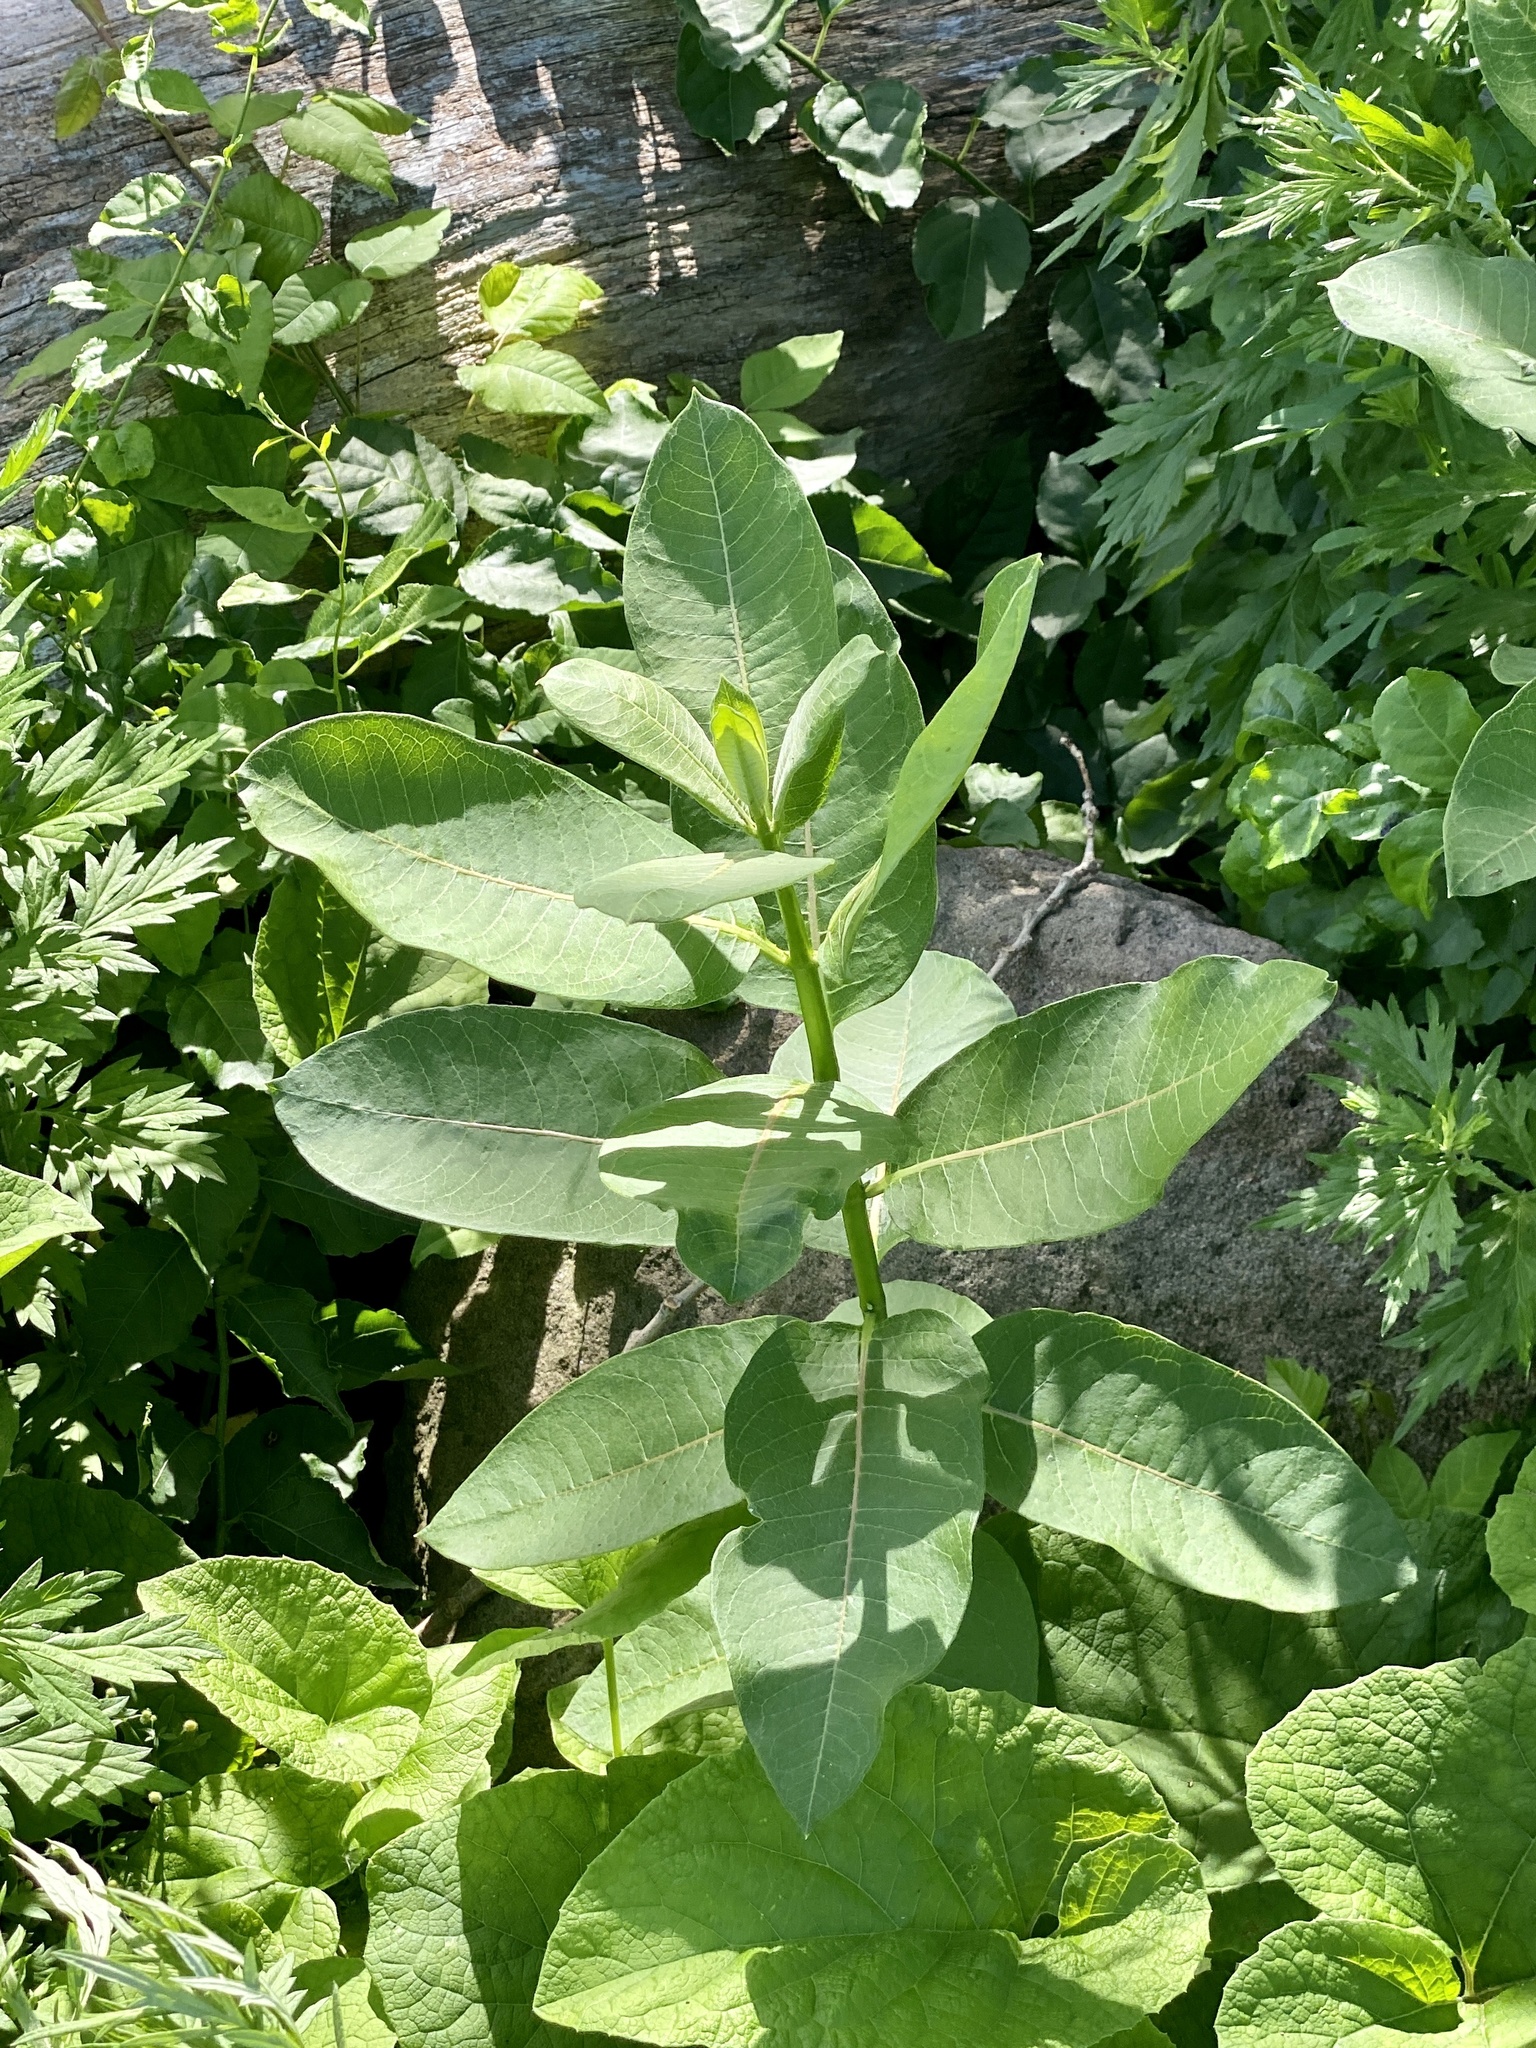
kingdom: Plantae
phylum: Tracheophyta
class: Magnoliopsida
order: Gentianales
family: Apocynaceae
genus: Asclepias
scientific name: Asclepias syriaca
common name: Common milkweed
